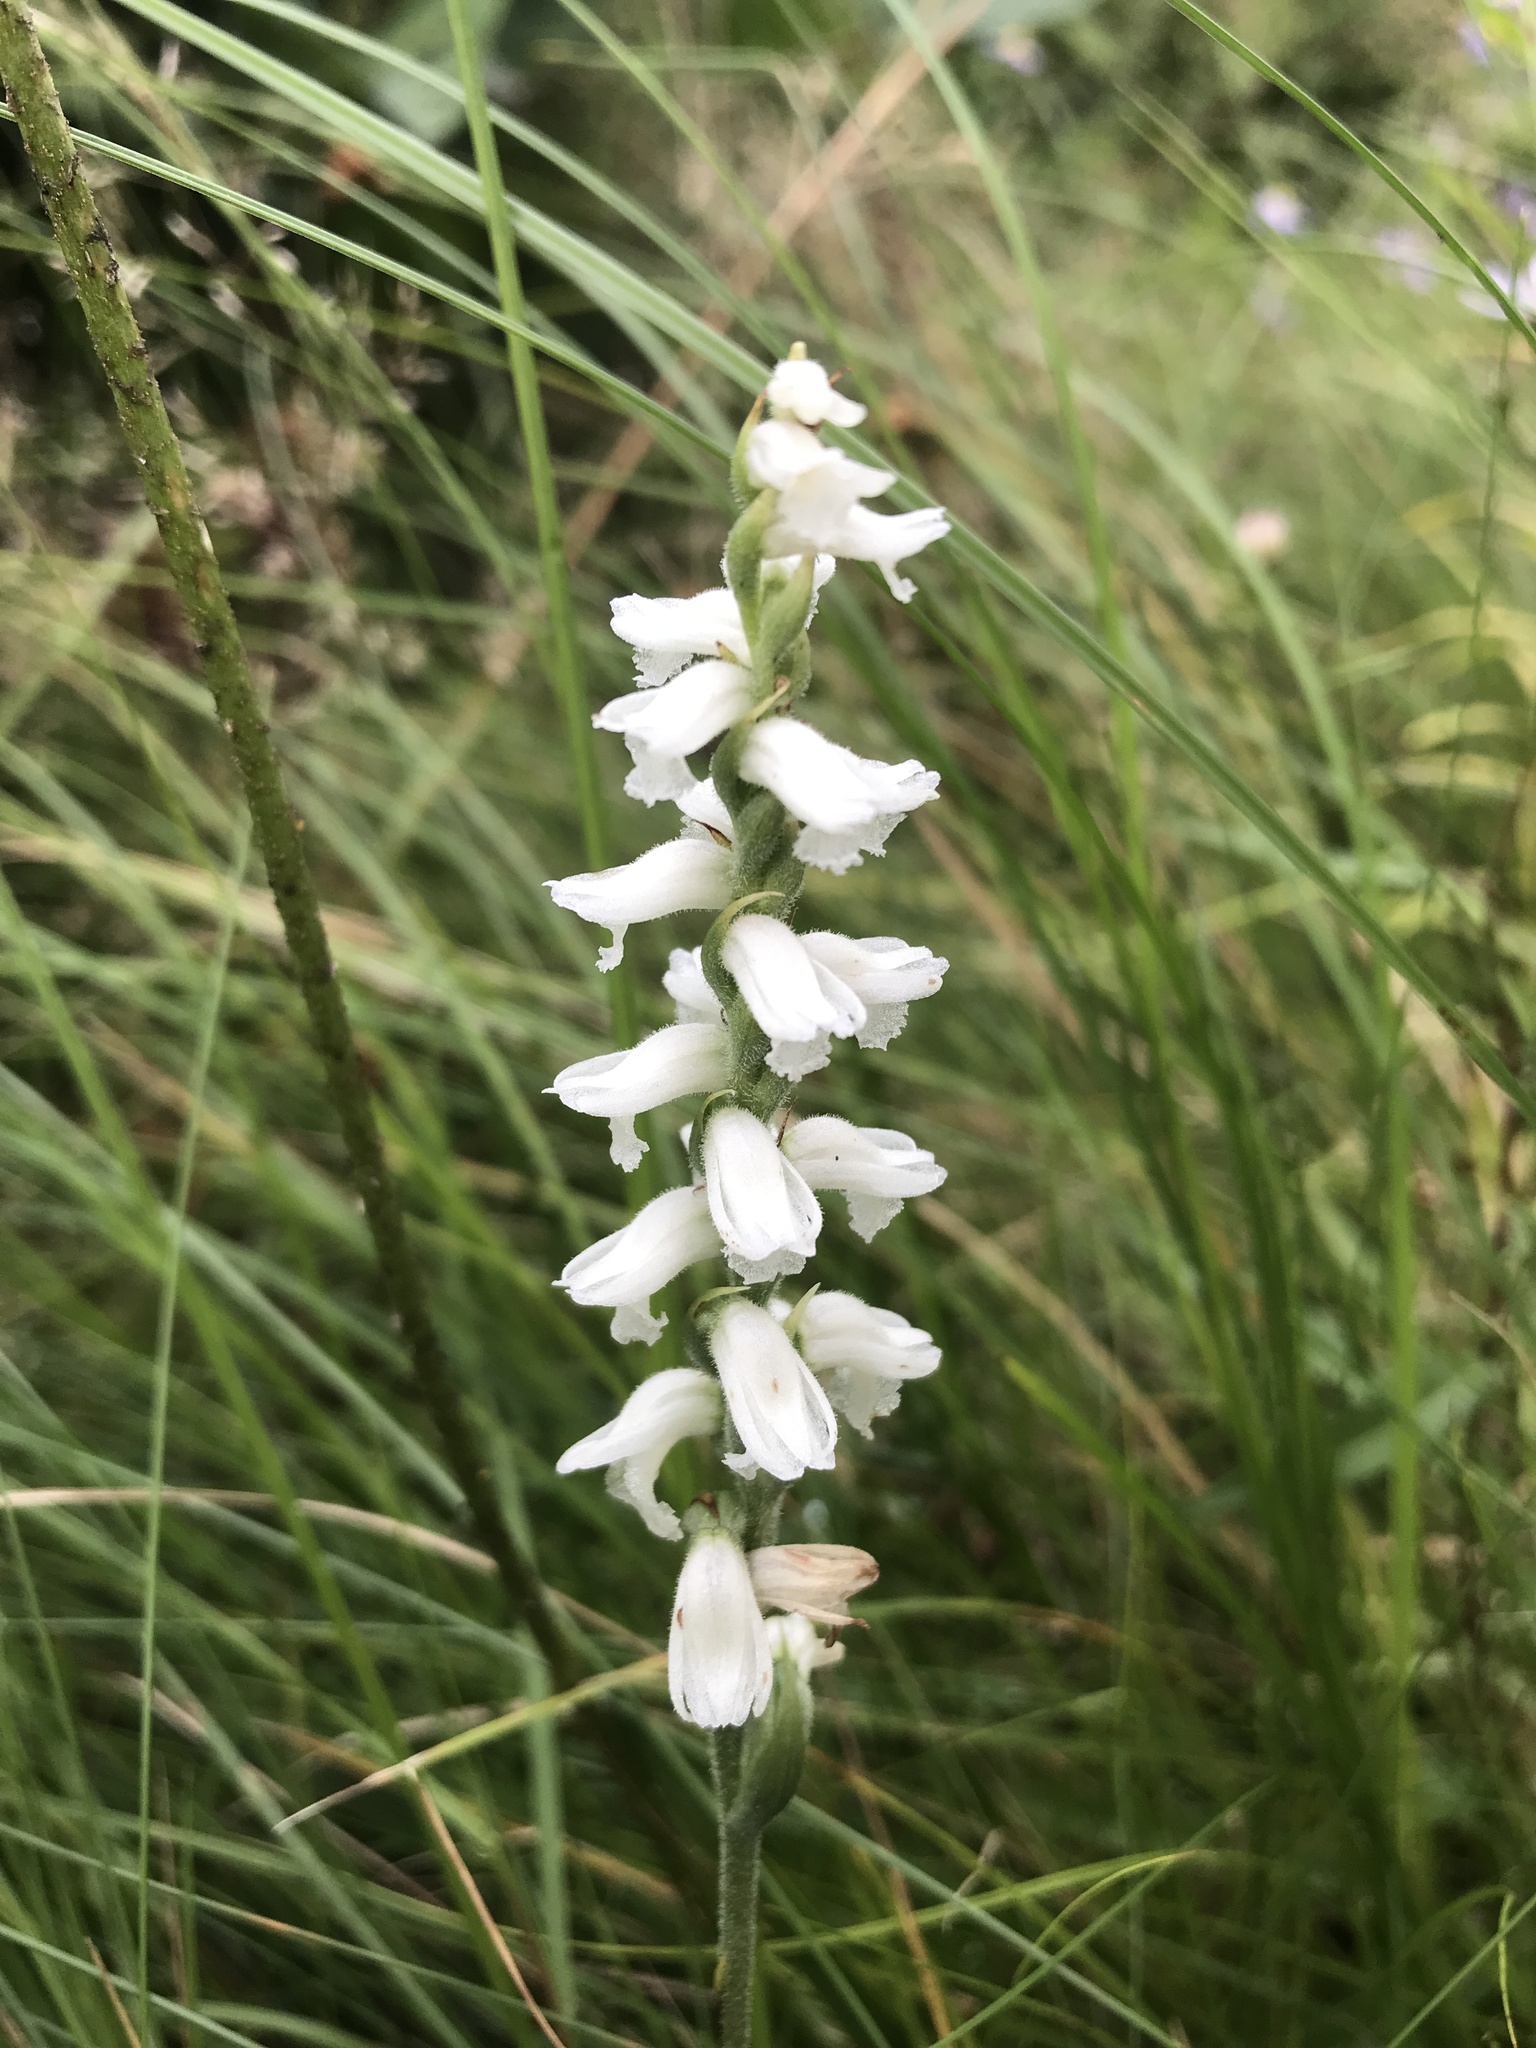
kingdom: Plantae
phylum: Tracheophyta
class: Liliopsida
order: Asparagales
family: Orchidaceae
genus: Spiranthes
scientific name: Spiranthes cernua
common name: Dropping ladies'-tresses
